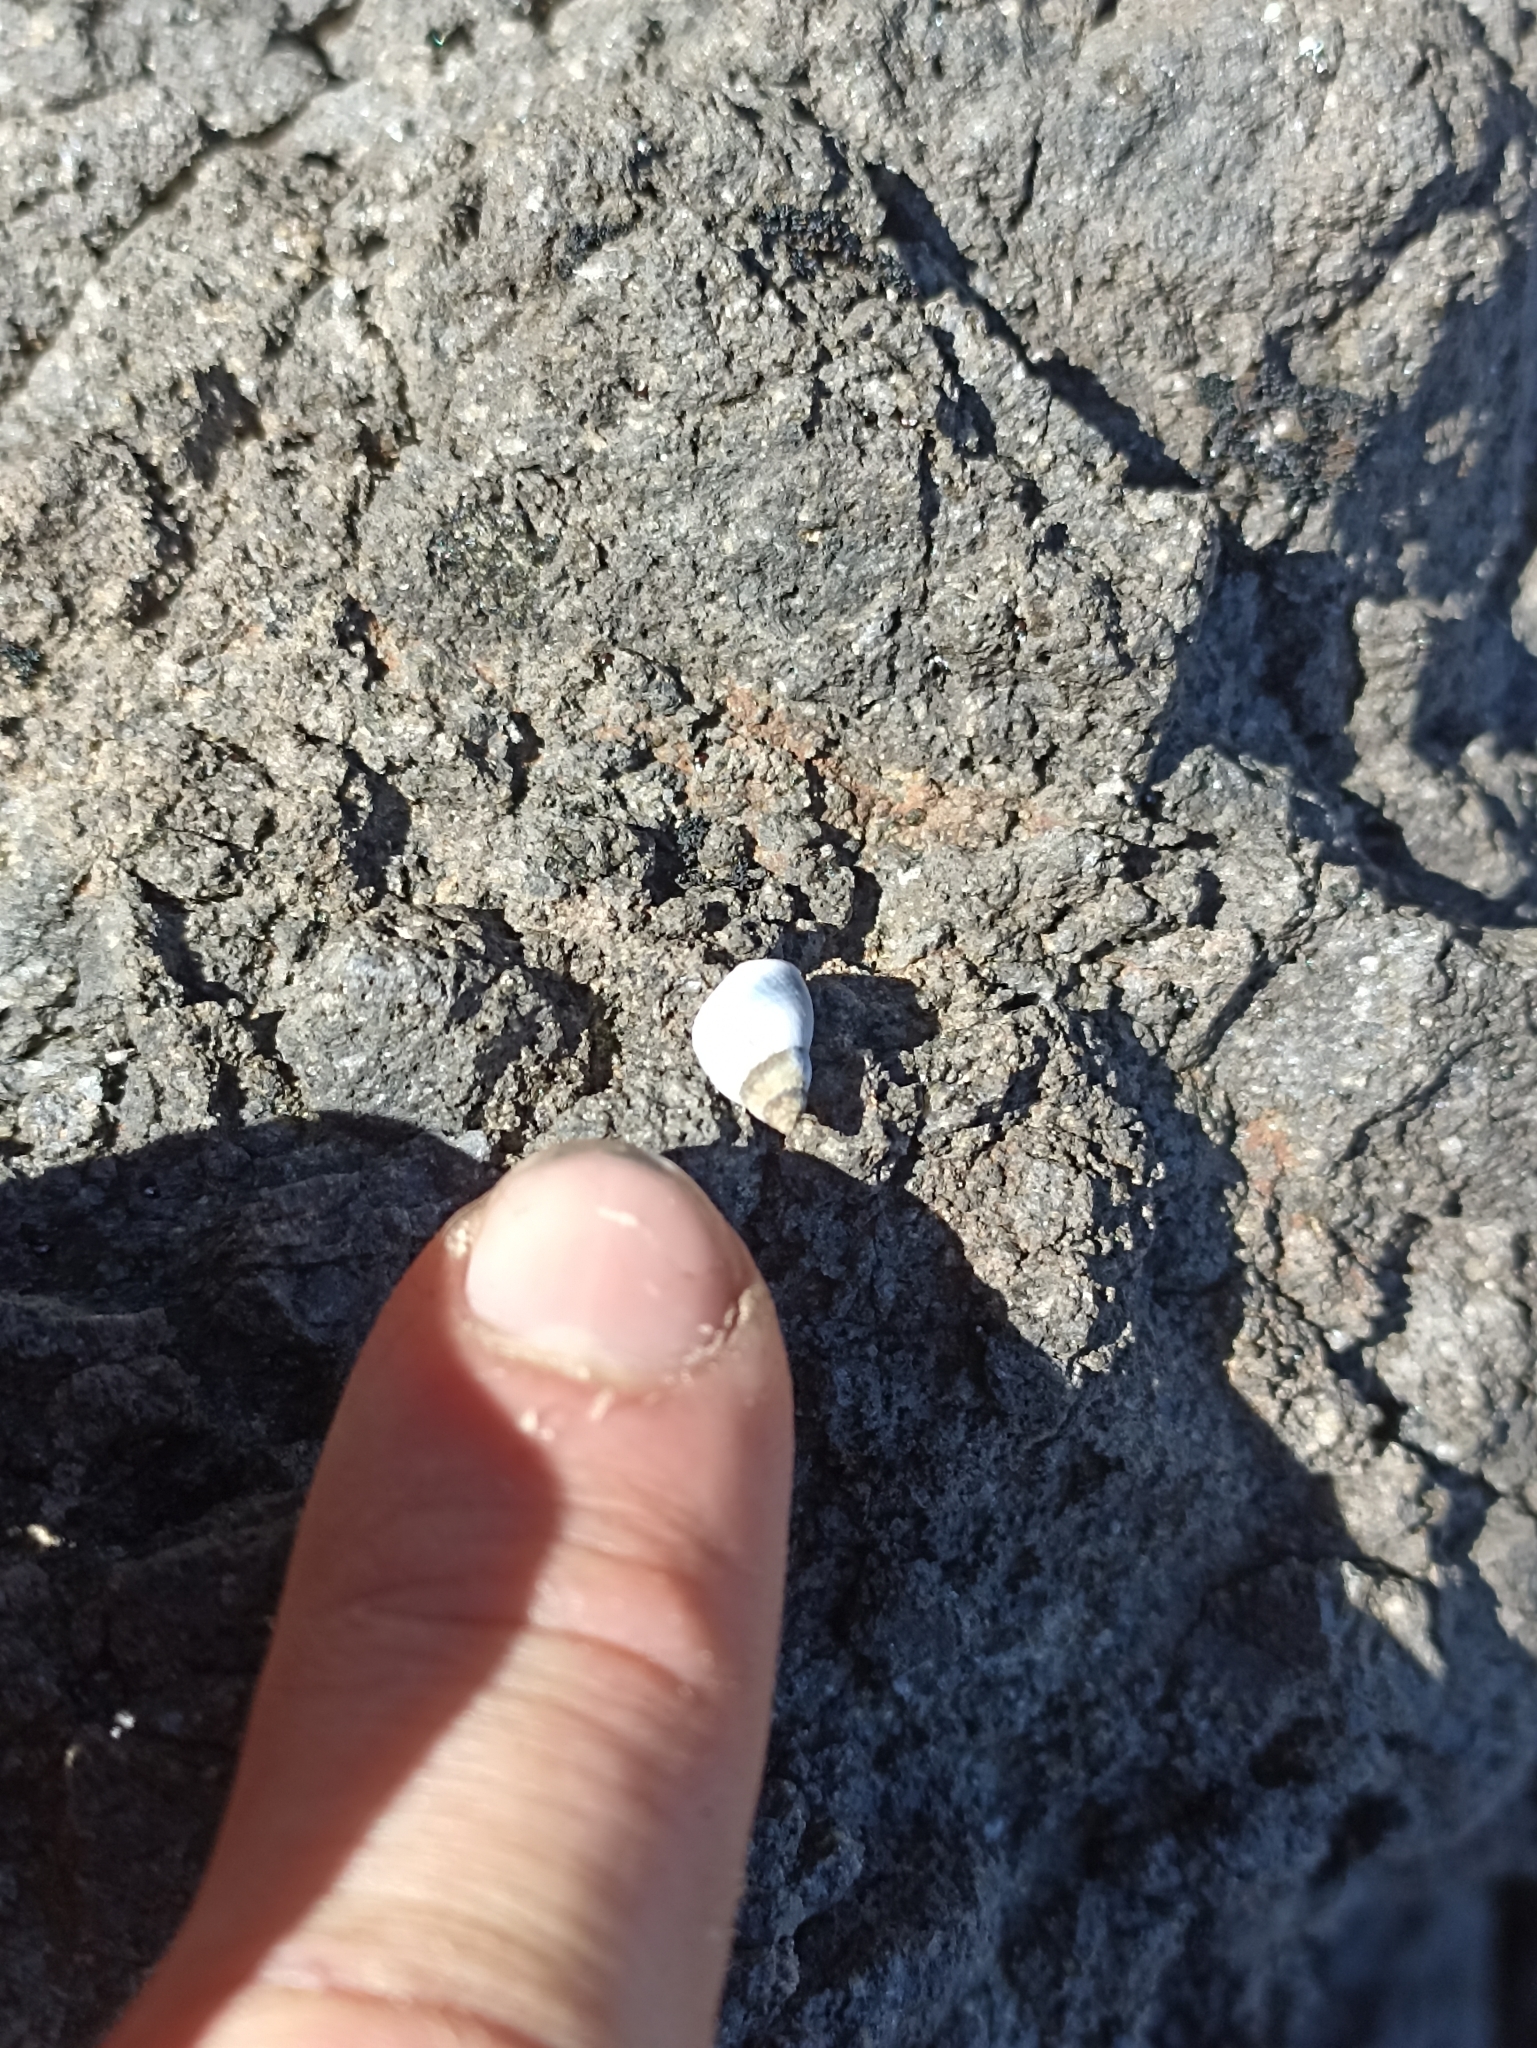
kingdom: Animalia
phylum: Mollusca
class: Gastropoda
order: Littorinimorpha
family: Littorinidae
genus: Austrolittorina
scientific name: Austrolittorina antipodum
